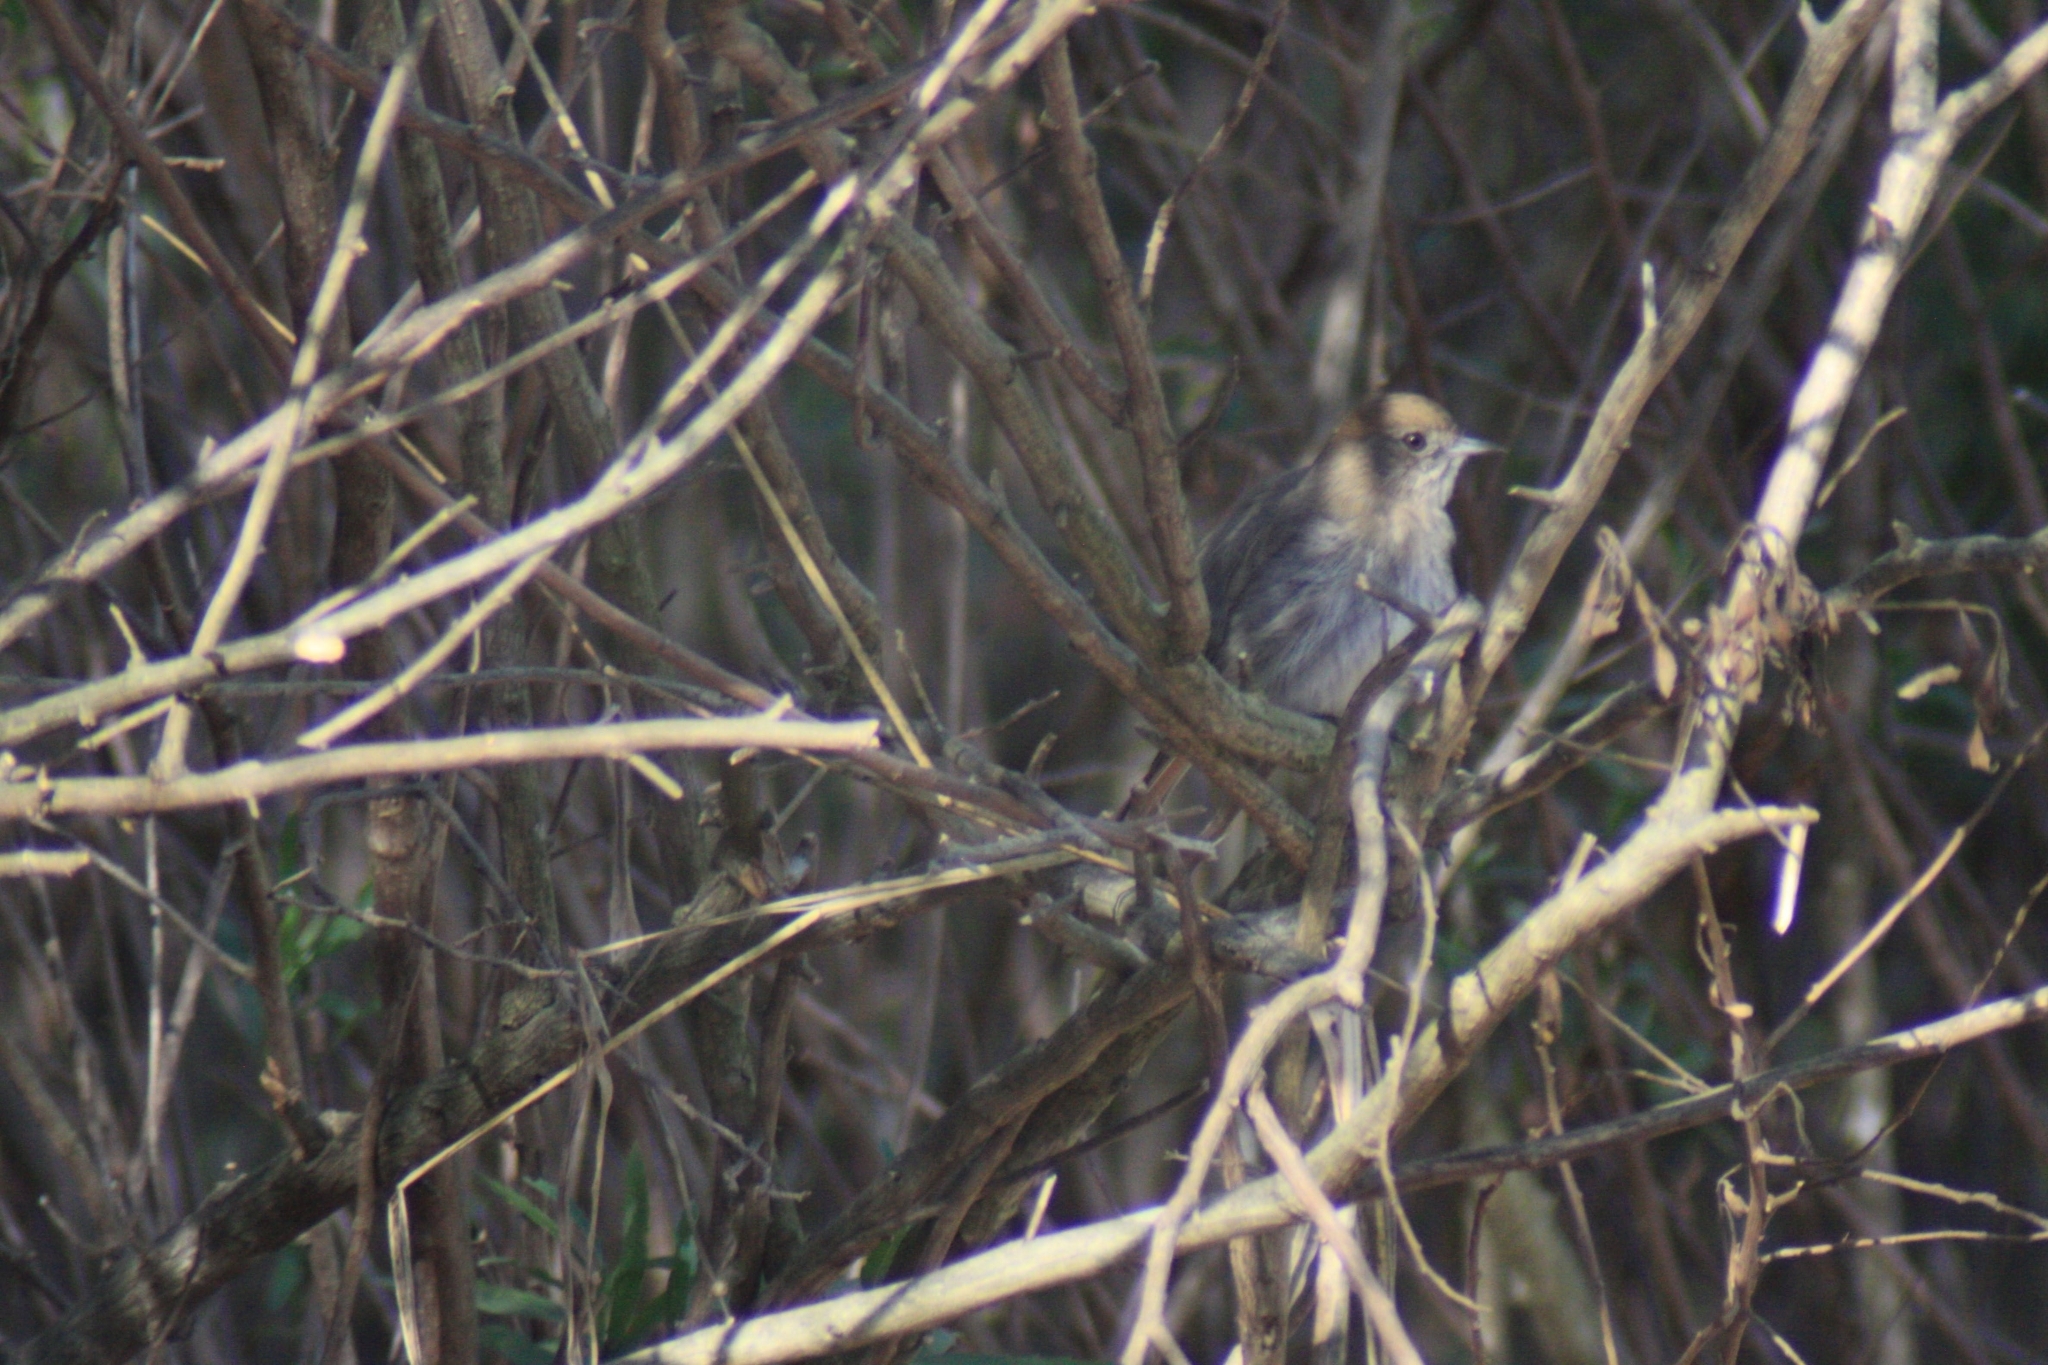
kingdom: Animalia
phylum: Chordata
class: Aves
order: Passeriformes
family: Tyrannidae
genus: Knipolegus
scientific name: Knipolegus striaticeps
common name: Cinereous tyrant
